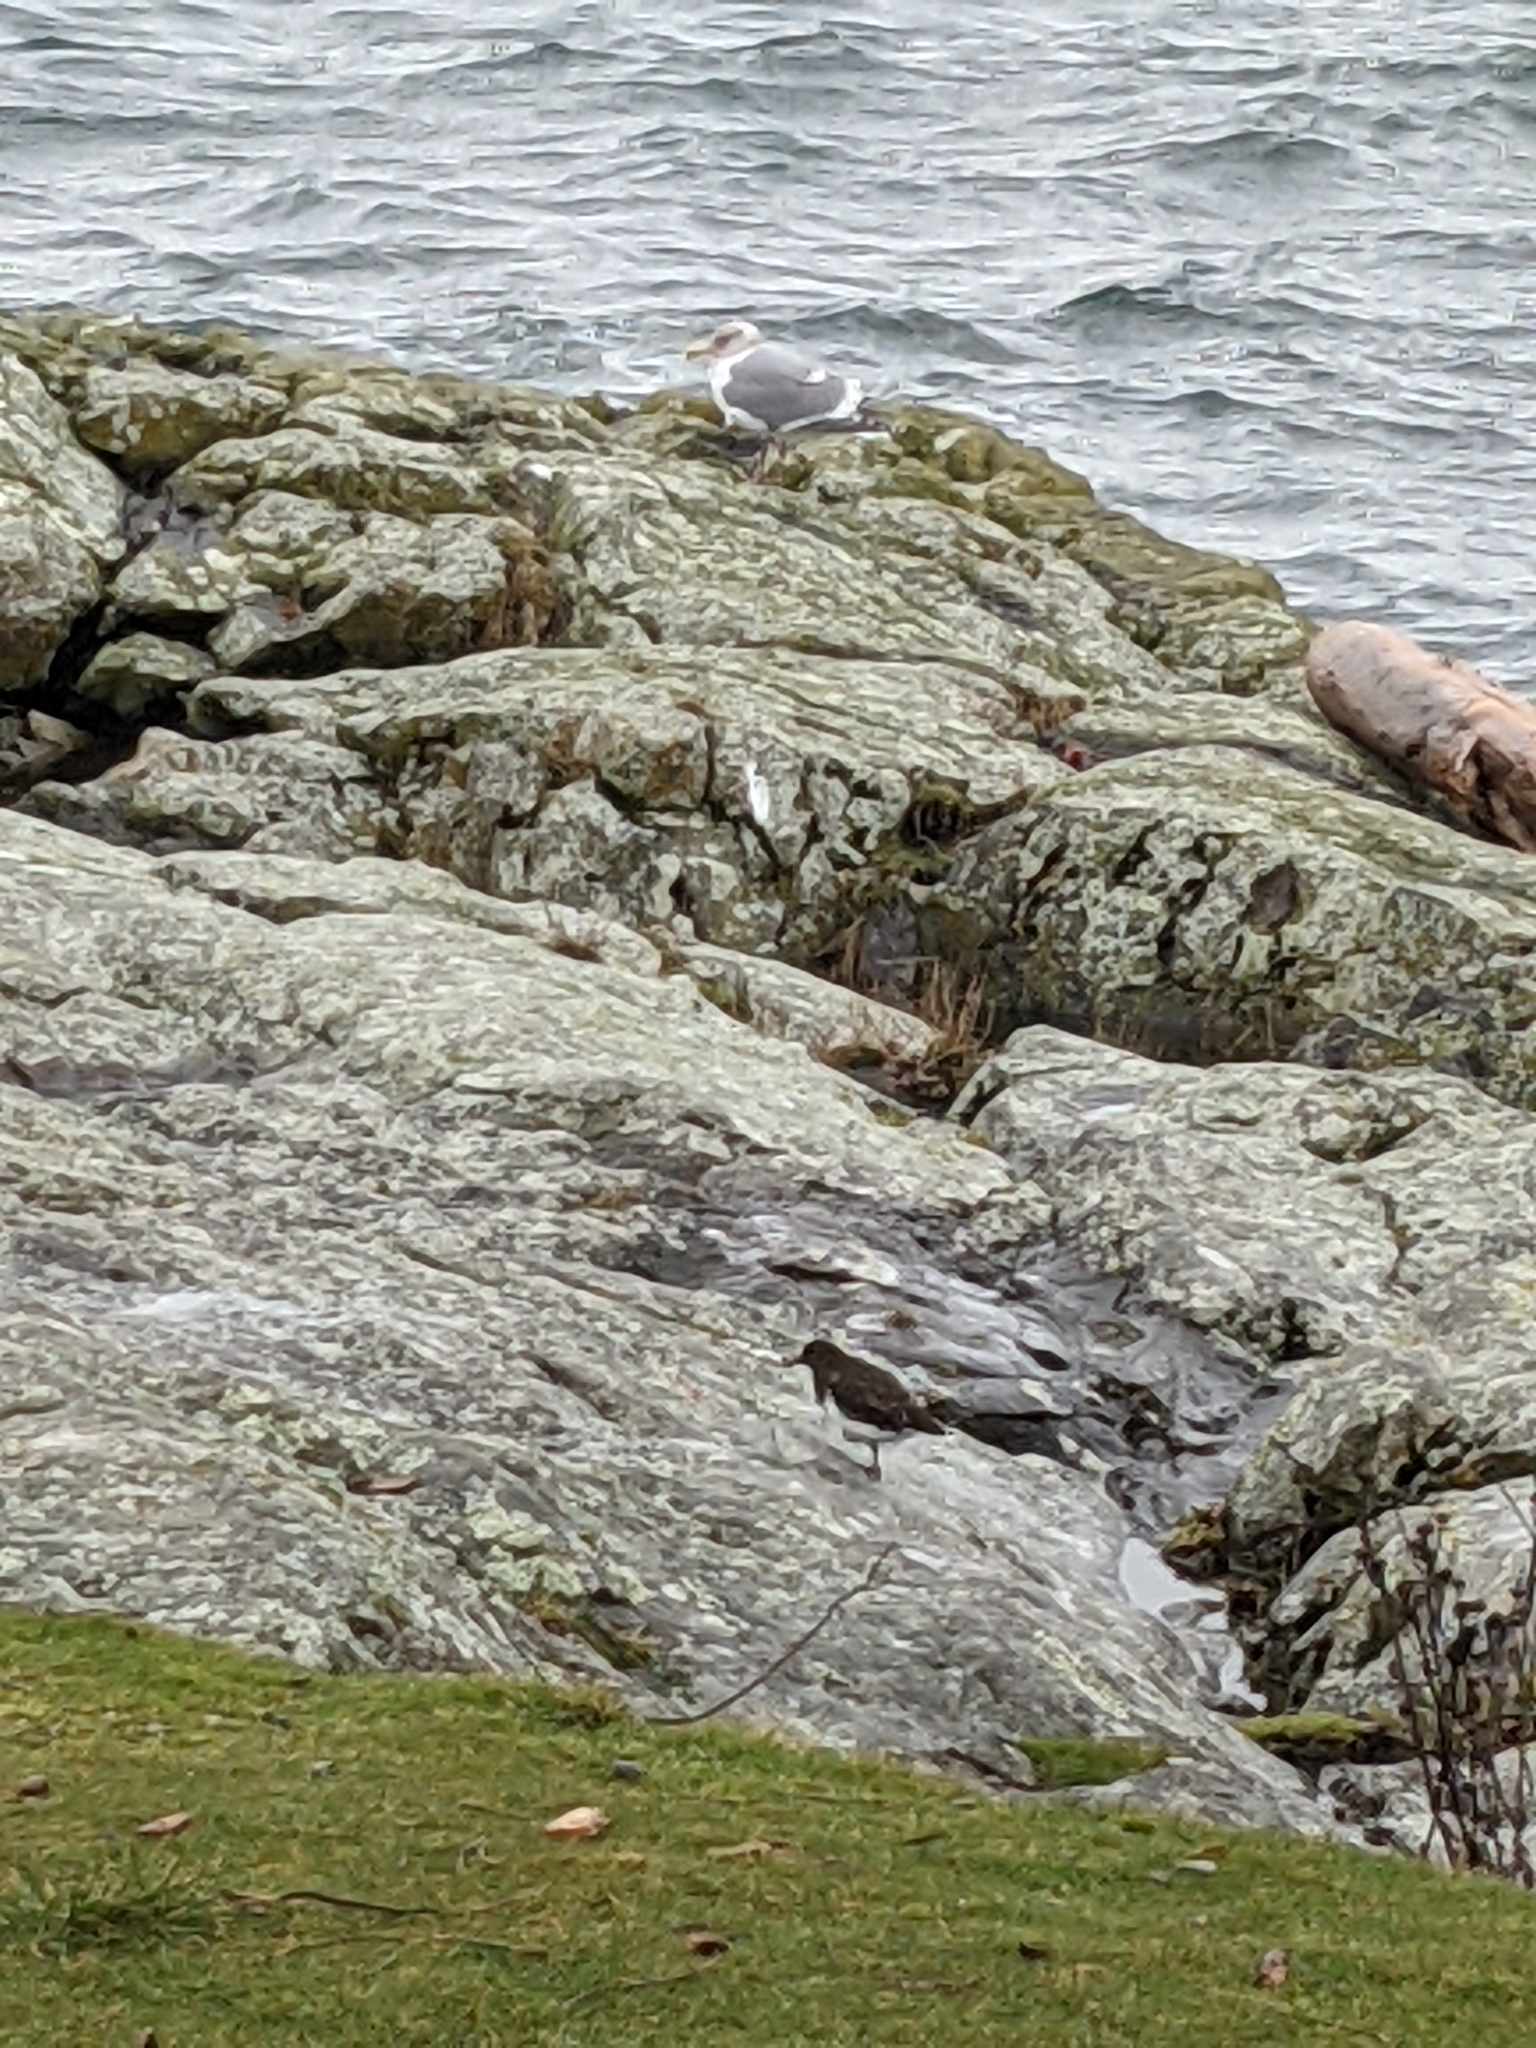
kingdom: Animalia
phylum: Chordata
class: Aves
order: Charadriiformes
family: Scolopacidae
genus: Arenaria
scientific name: Arenaria melanocephala
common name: Black turnstone
